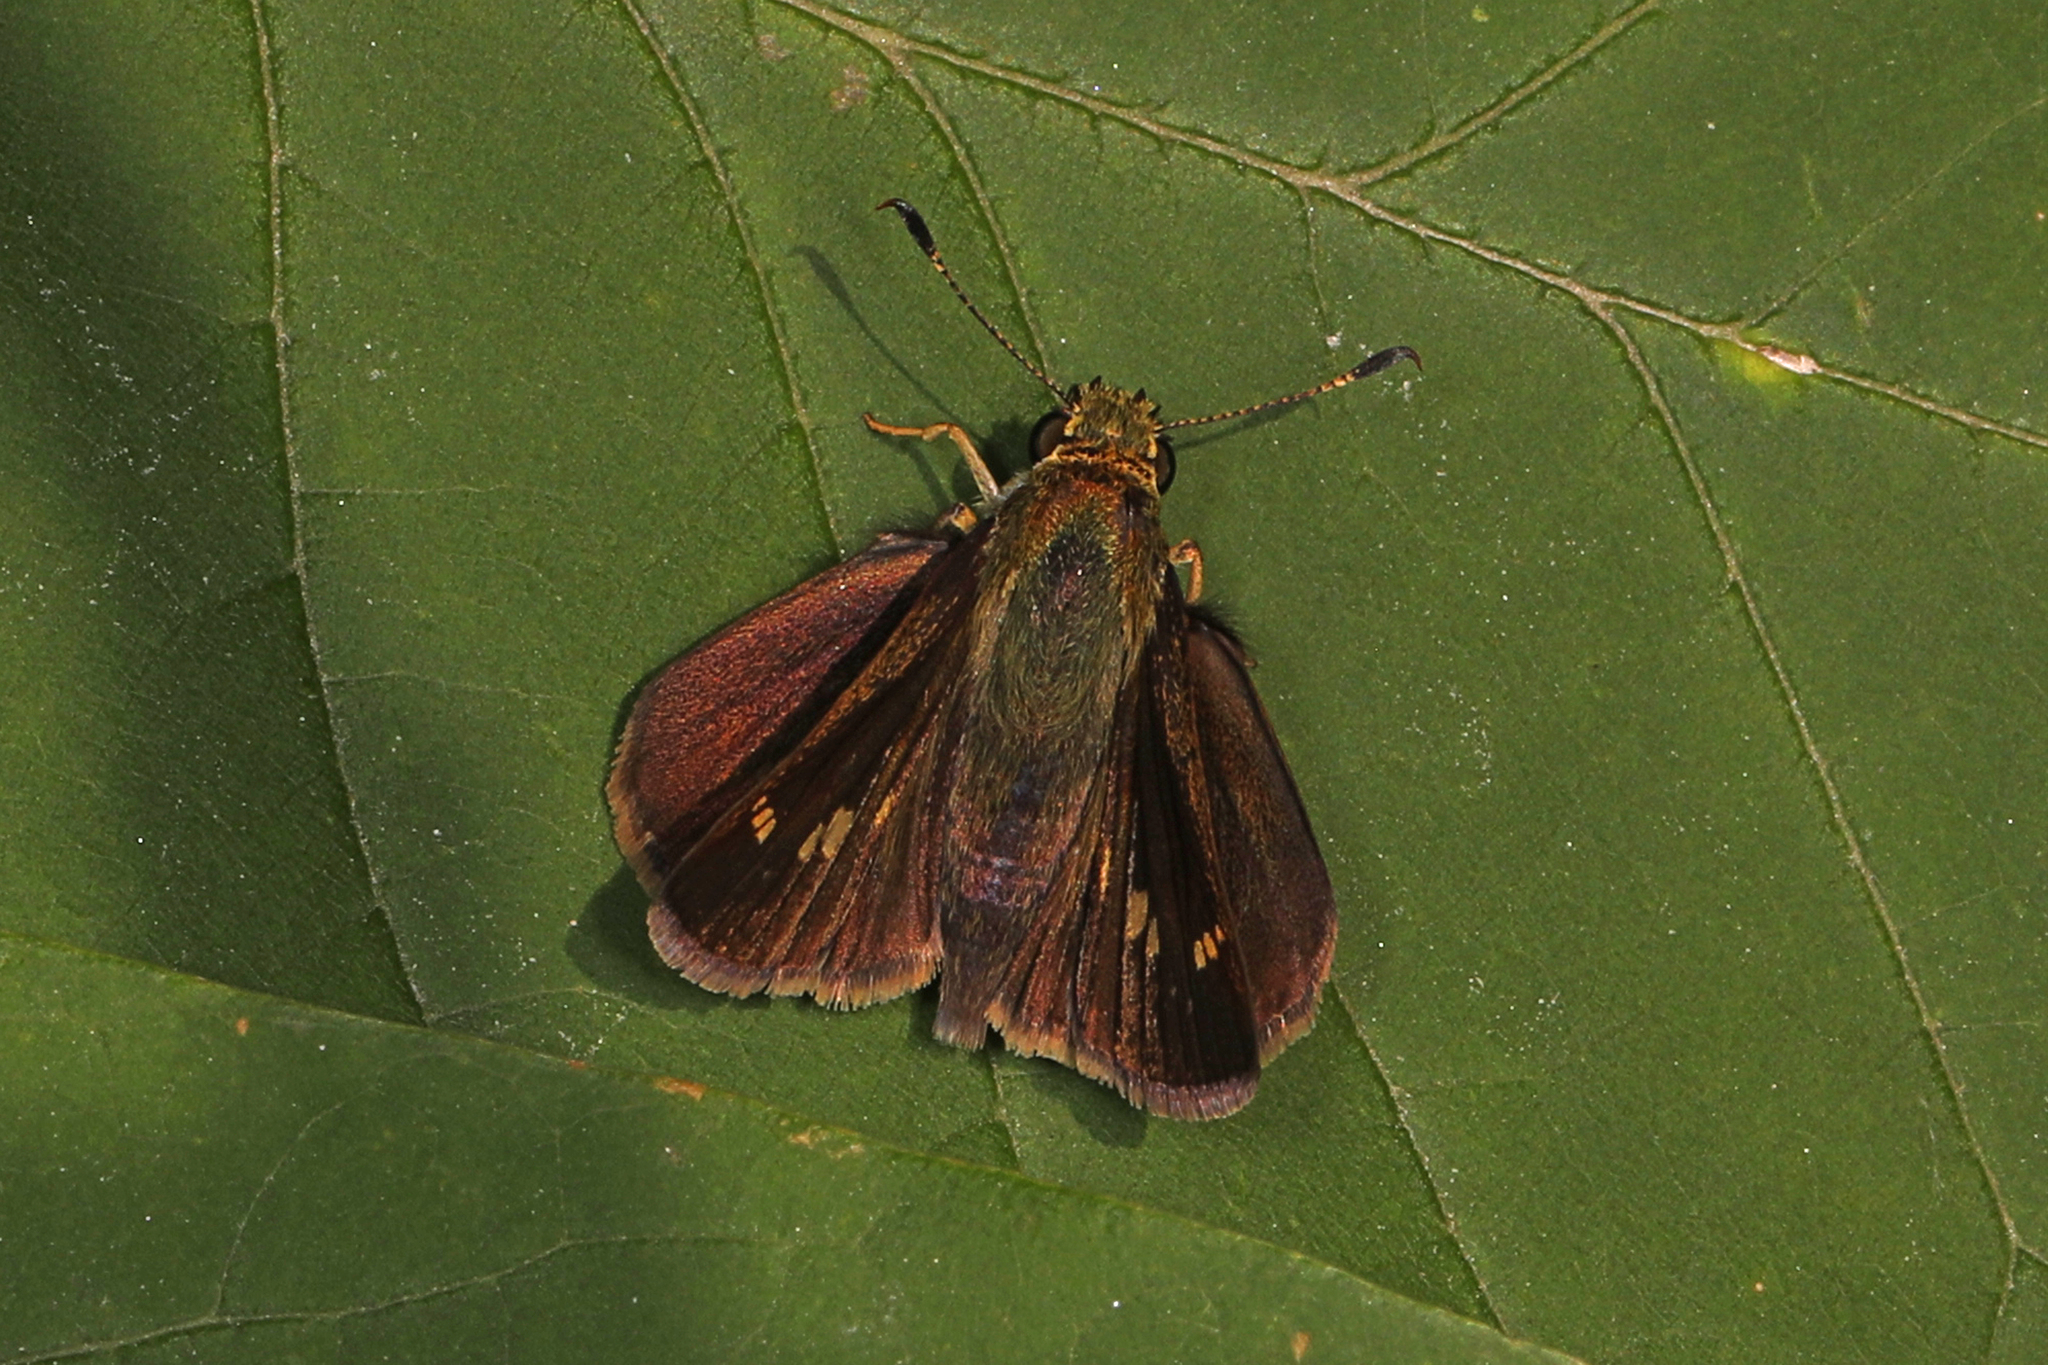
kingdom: Animalia
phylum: Arthropoda
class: Insecta
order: Lepidoptera
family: Hesperiidae
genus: Vernia
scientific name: Vernia verna
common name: Little glassywing
